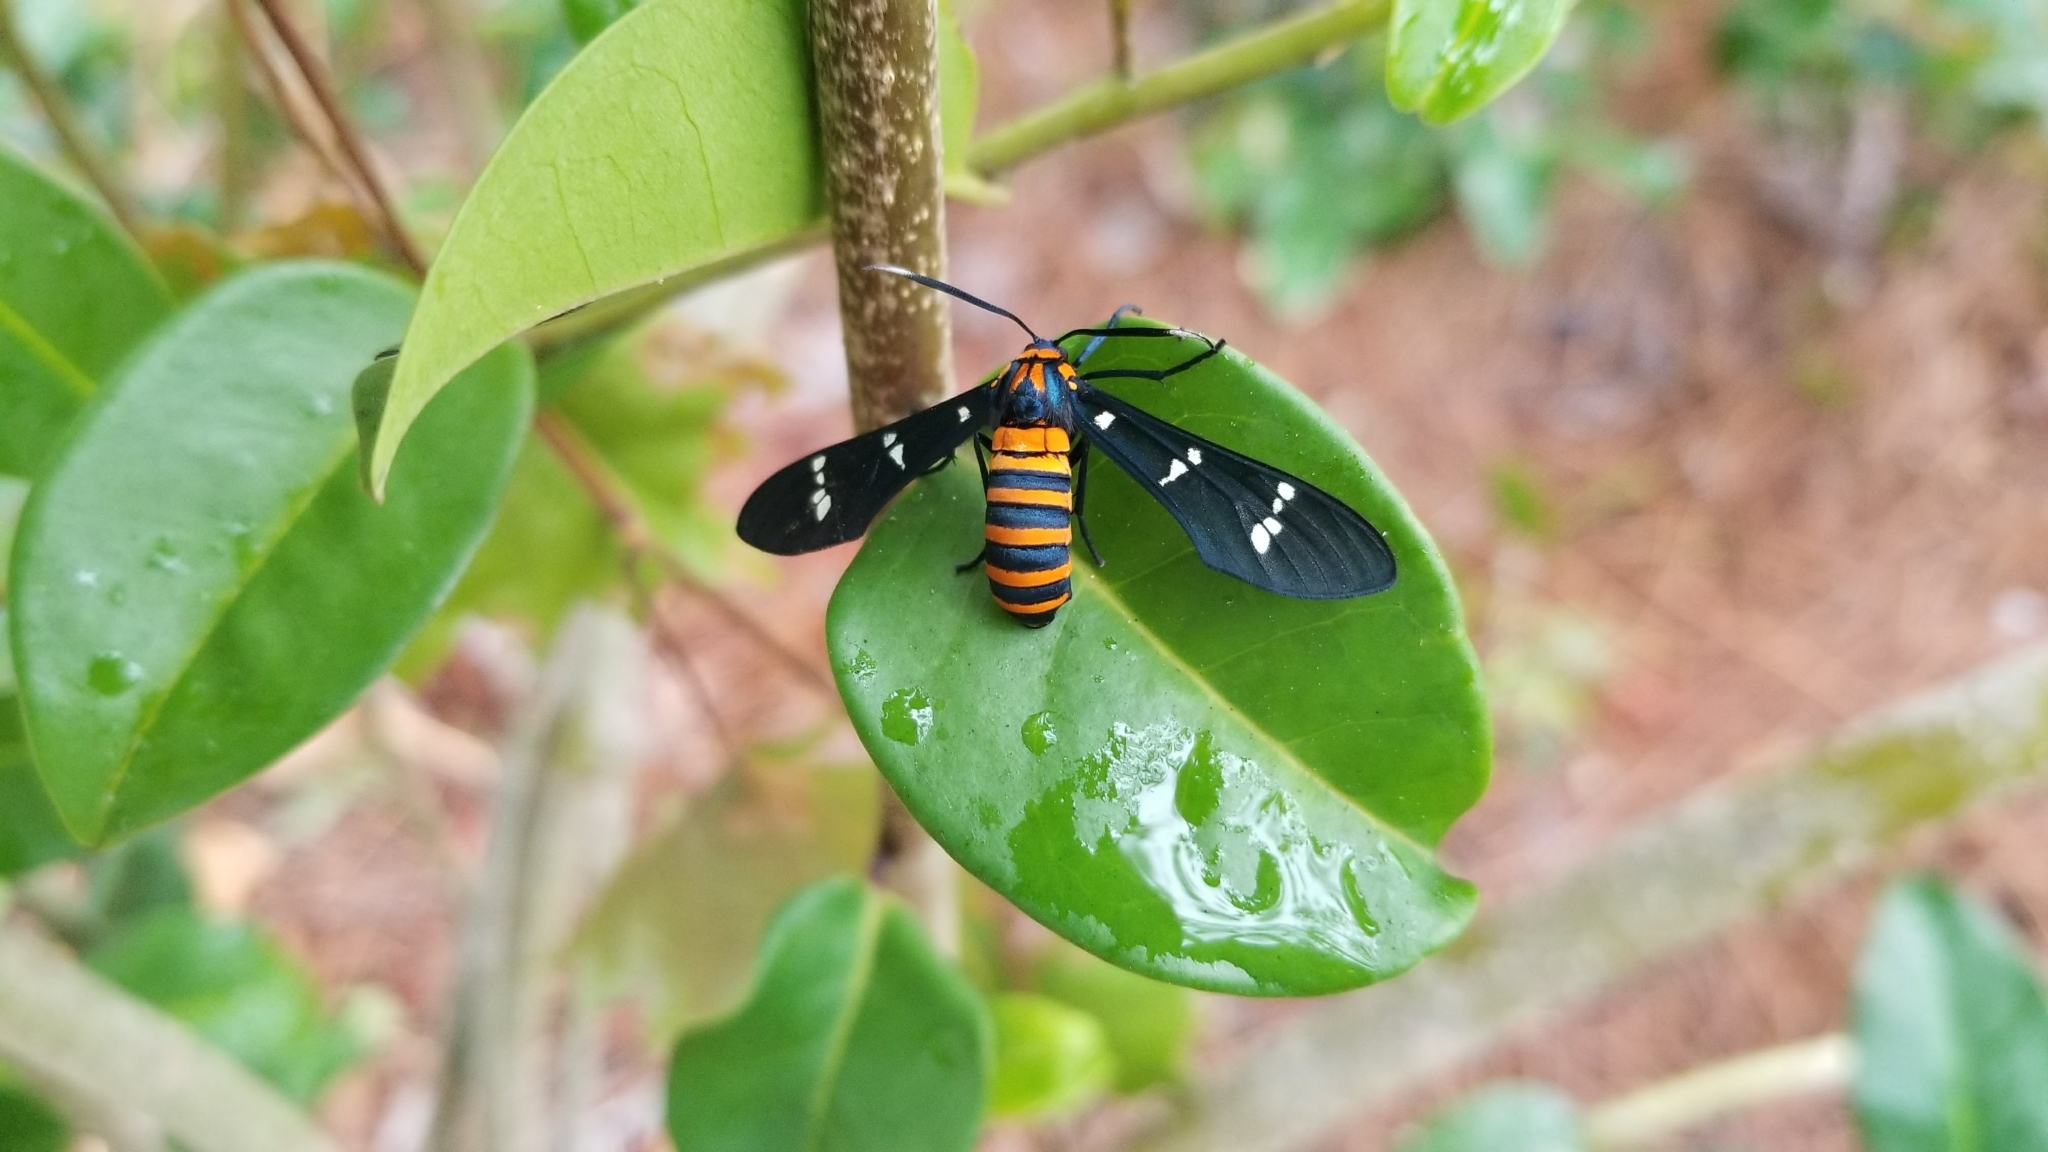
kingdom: Animalia
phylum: Arthropoda
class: Insecta
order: Lepidoptera
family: Erebidae
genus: Syntomeida
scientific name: Syntomeida ipomoeae
